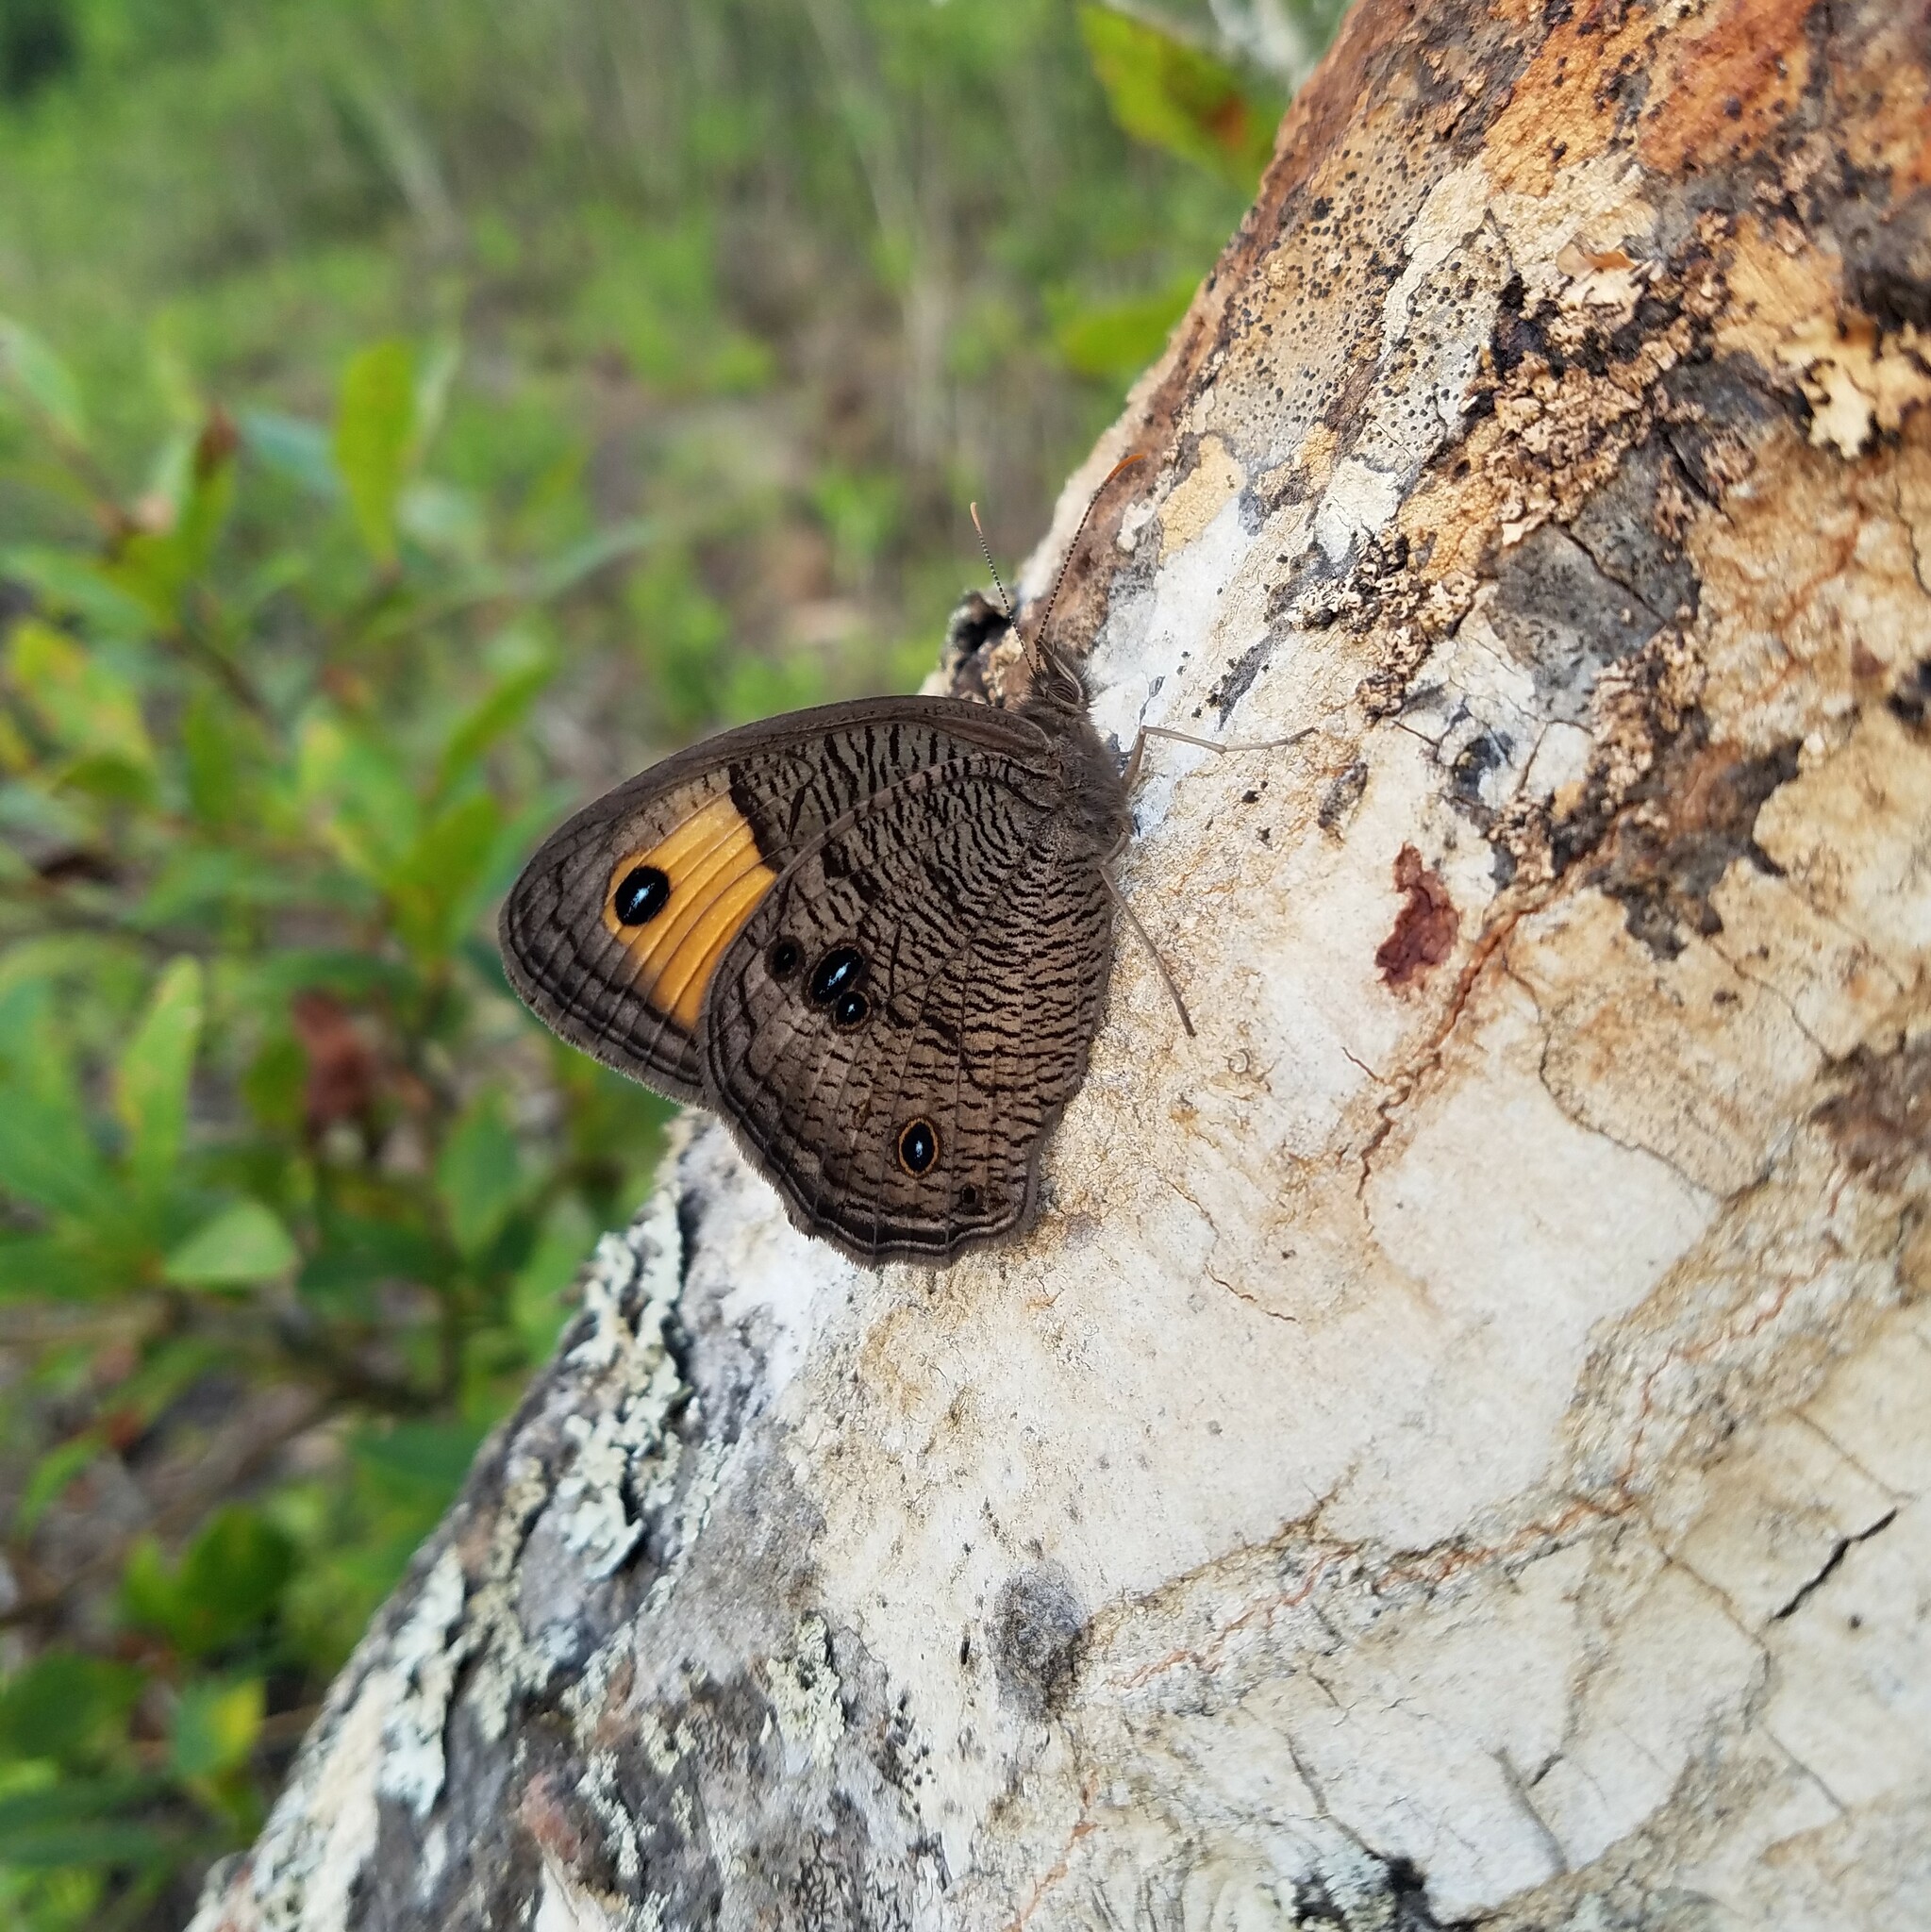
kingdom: Animalia
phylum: Arthropoda
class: Insecta
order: Lepidoptera
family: Nymphalidae
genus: Cercyonis
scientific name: Cercyonis pegala
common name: Common wood-nymph
